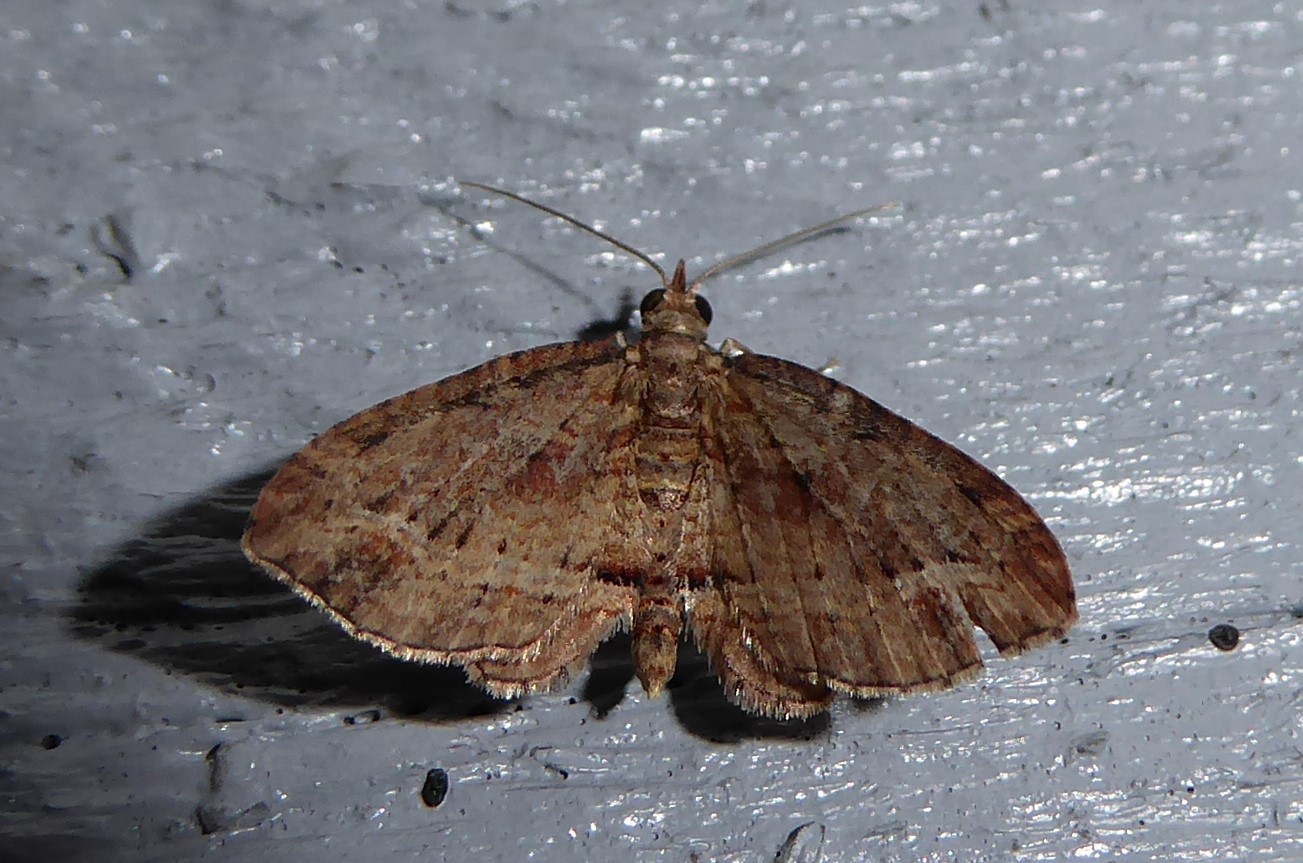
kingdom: Animalia
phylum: Arthropoda
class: Insecta
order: Lepidoptera
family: Geometridae
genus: Chloroclystis
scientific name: Chloroclystis filata
